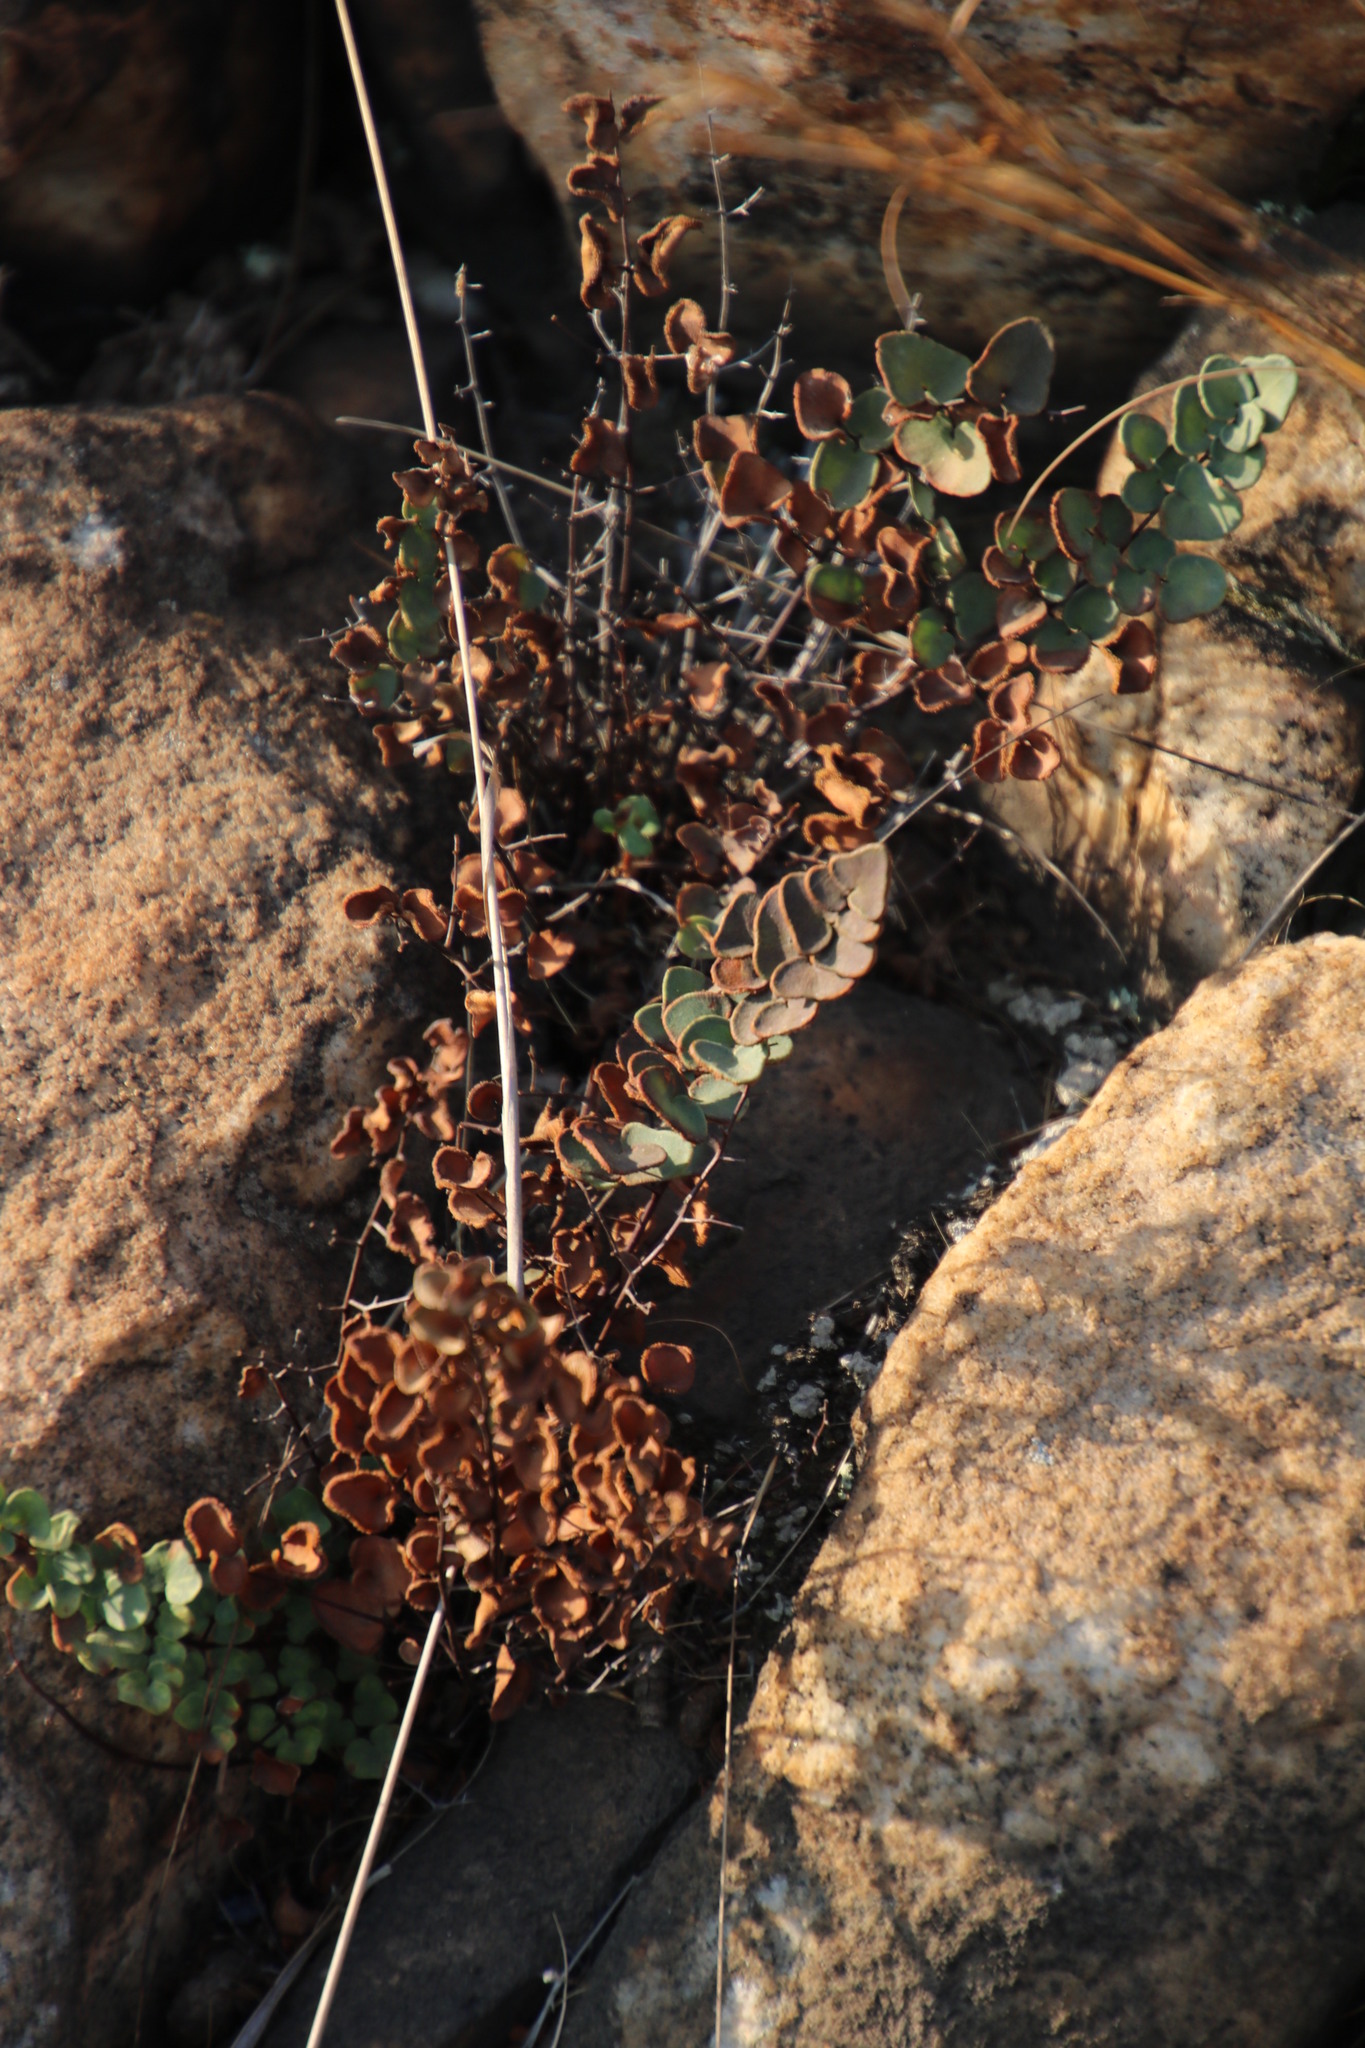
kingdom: Plantae
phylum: Tracheophyta
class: Polypodiopsida
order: Polypodiales
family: Pteridaceae
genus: Pellaea
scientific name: Pellaea calomelanos
